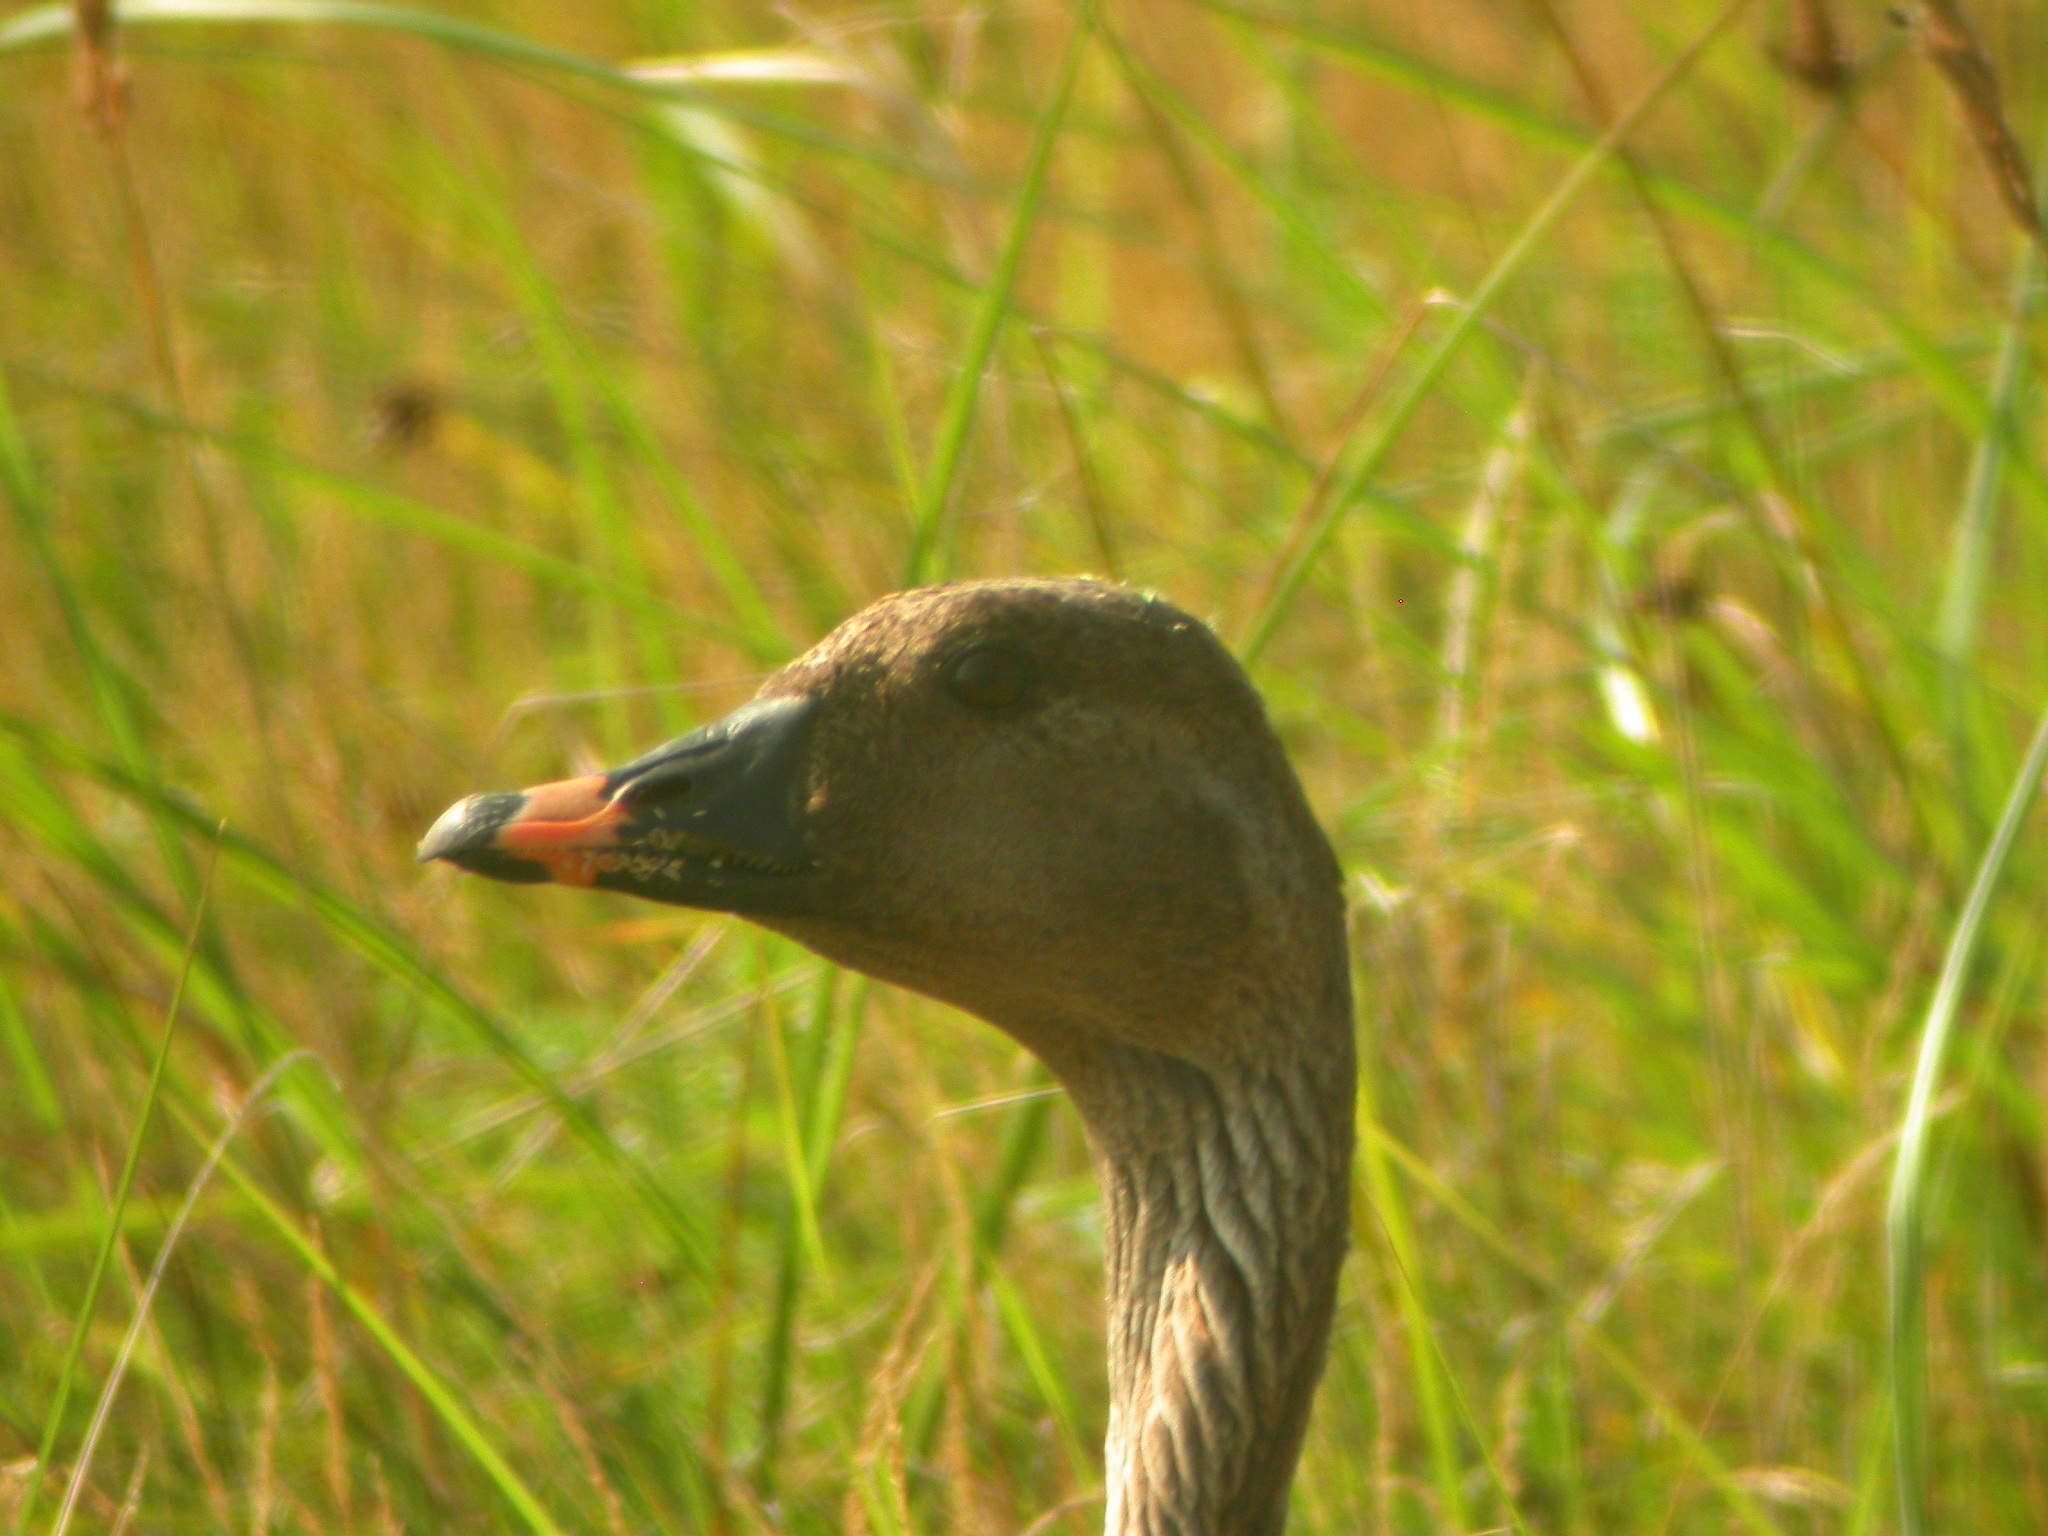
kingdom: Animalia
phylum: Chordata
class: Aves
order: Anseriformes
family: Anatidae
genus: Anser
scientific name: Anser serrirostris
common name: Tundra bean goose
